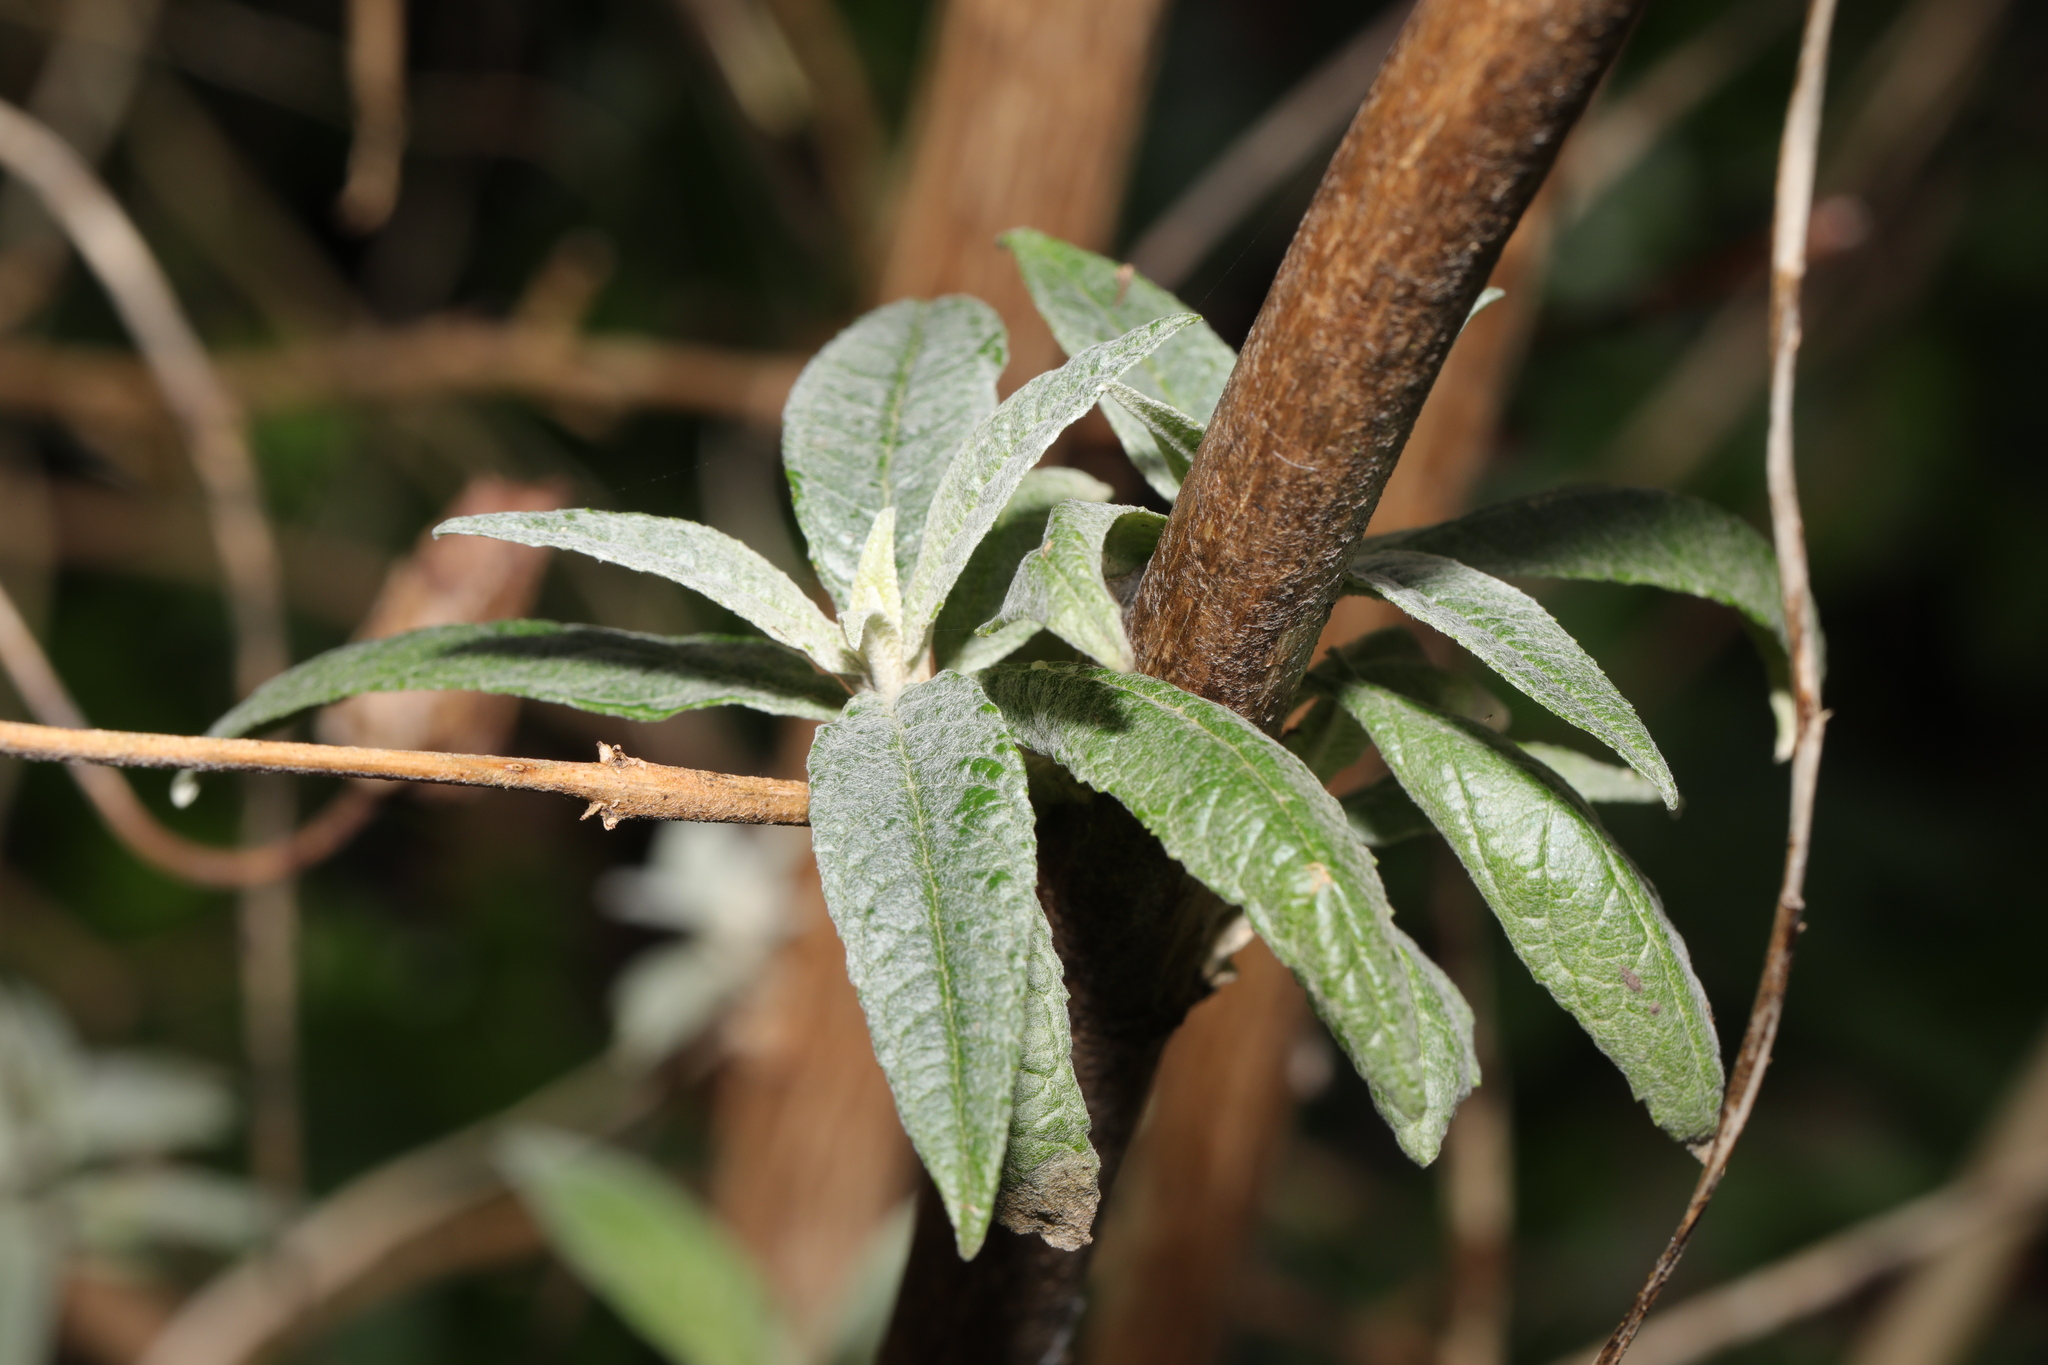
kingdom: Plantae
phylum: Tracheophyta
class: Magnoliopsida
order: Lamiales
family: Scrophulariaceae
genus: Buddleja
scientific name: Buddleja davidii
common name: Butterfly-bush
